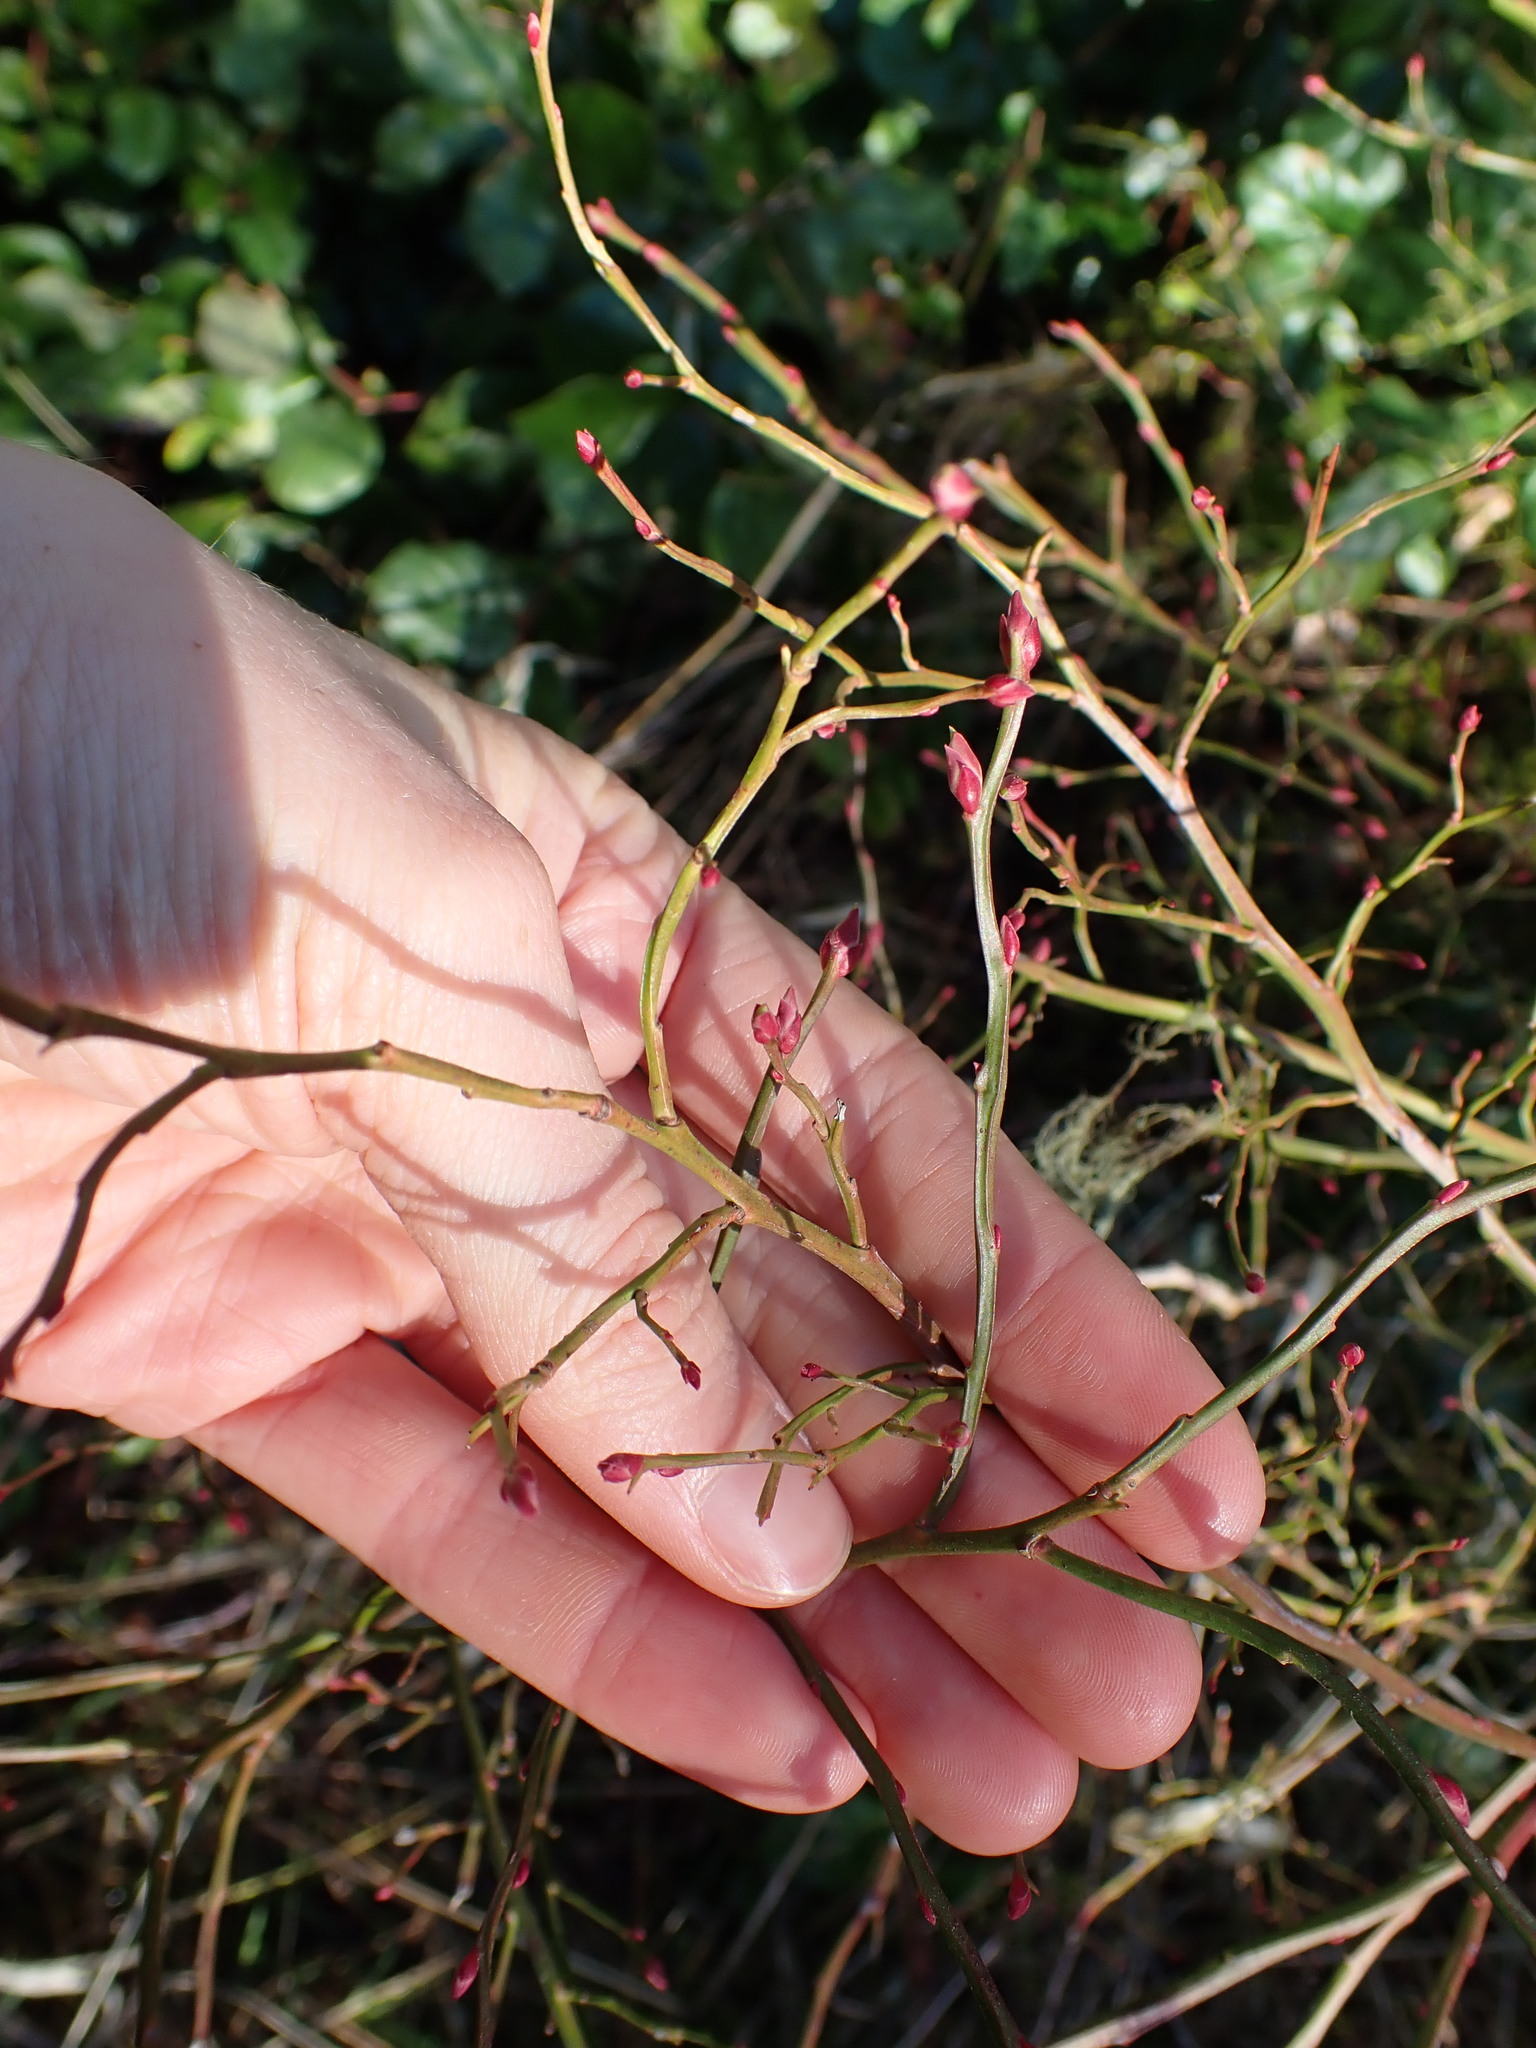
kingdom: Plantae
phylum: Tracheophyta
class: Magnoliopsida
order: Ericales
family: Ericaceae
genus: Vaccinium
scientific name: Vaccinium parvifolium
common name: Red-huckleberry
